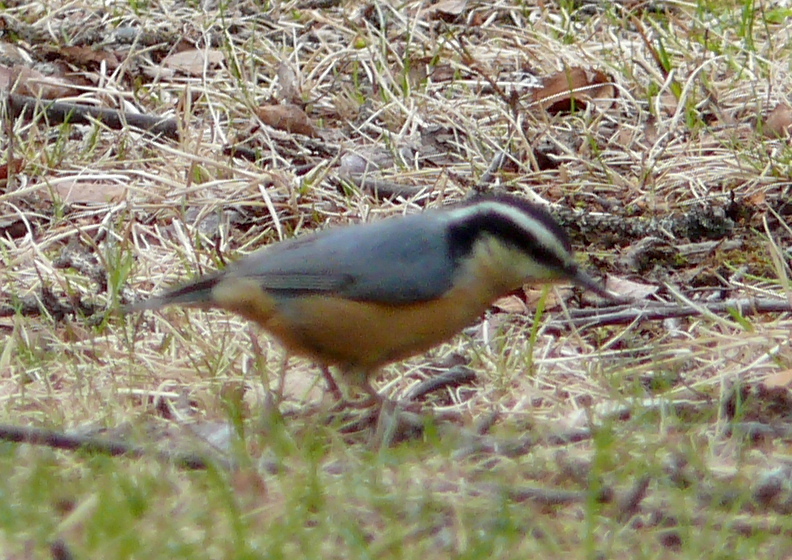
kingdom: Animalia
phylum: Chordata
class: Aves
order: Passeriformes
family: Sittidae
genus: Sitta
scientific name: Sitta canadensis
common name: Red-breasted nuthatch
